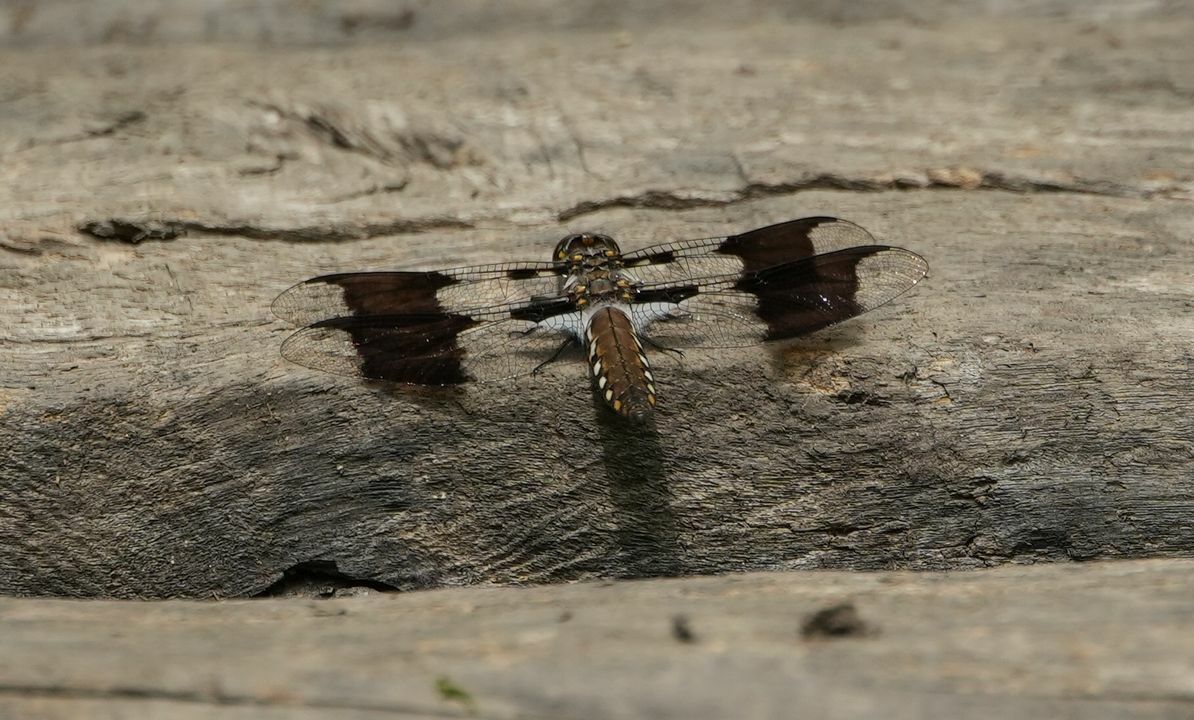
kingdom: Animalia
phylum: Arthropoda
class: Insecta
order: Odonata
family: Libellulidae
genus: Plathemis
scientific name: Plathemis lydia
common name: Common whitetail
